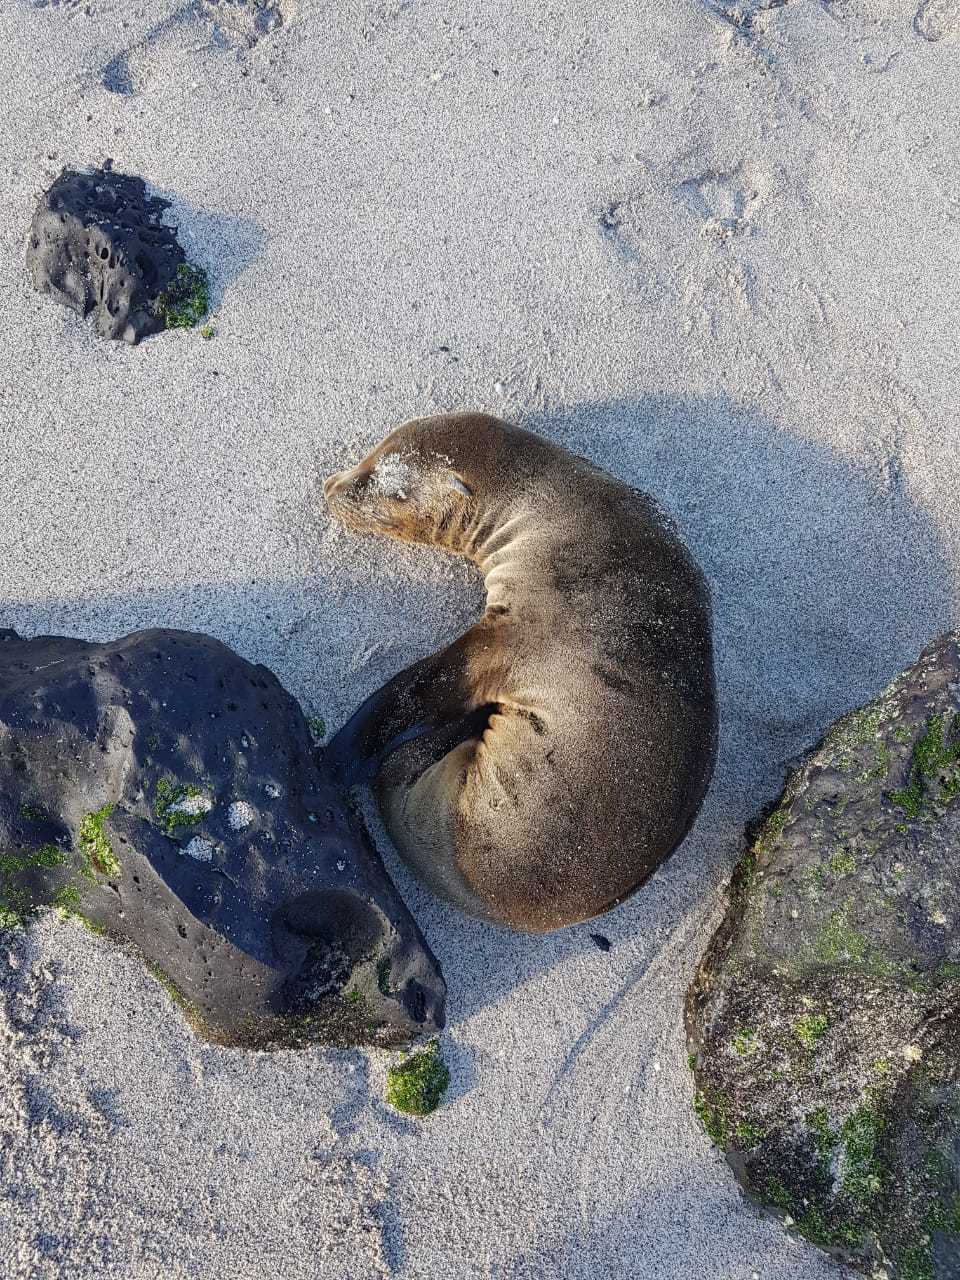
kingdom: Animalia
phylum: Chordata
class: Mammalia
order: Carnivora
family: Otariidae
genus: Zalophus
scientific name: Zalophus wollebaeki
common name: Galapagos sea lion
